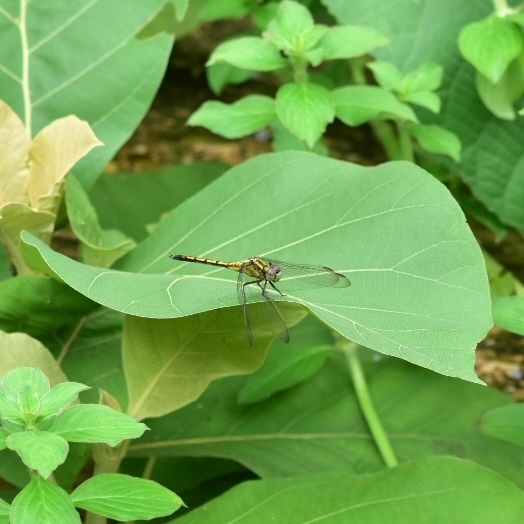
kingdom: Animalia
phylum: Arthropoda
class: Insecta
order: Odonata
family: Libellulidae
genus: Orthetrum
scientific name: Orthetrum luzonicum
